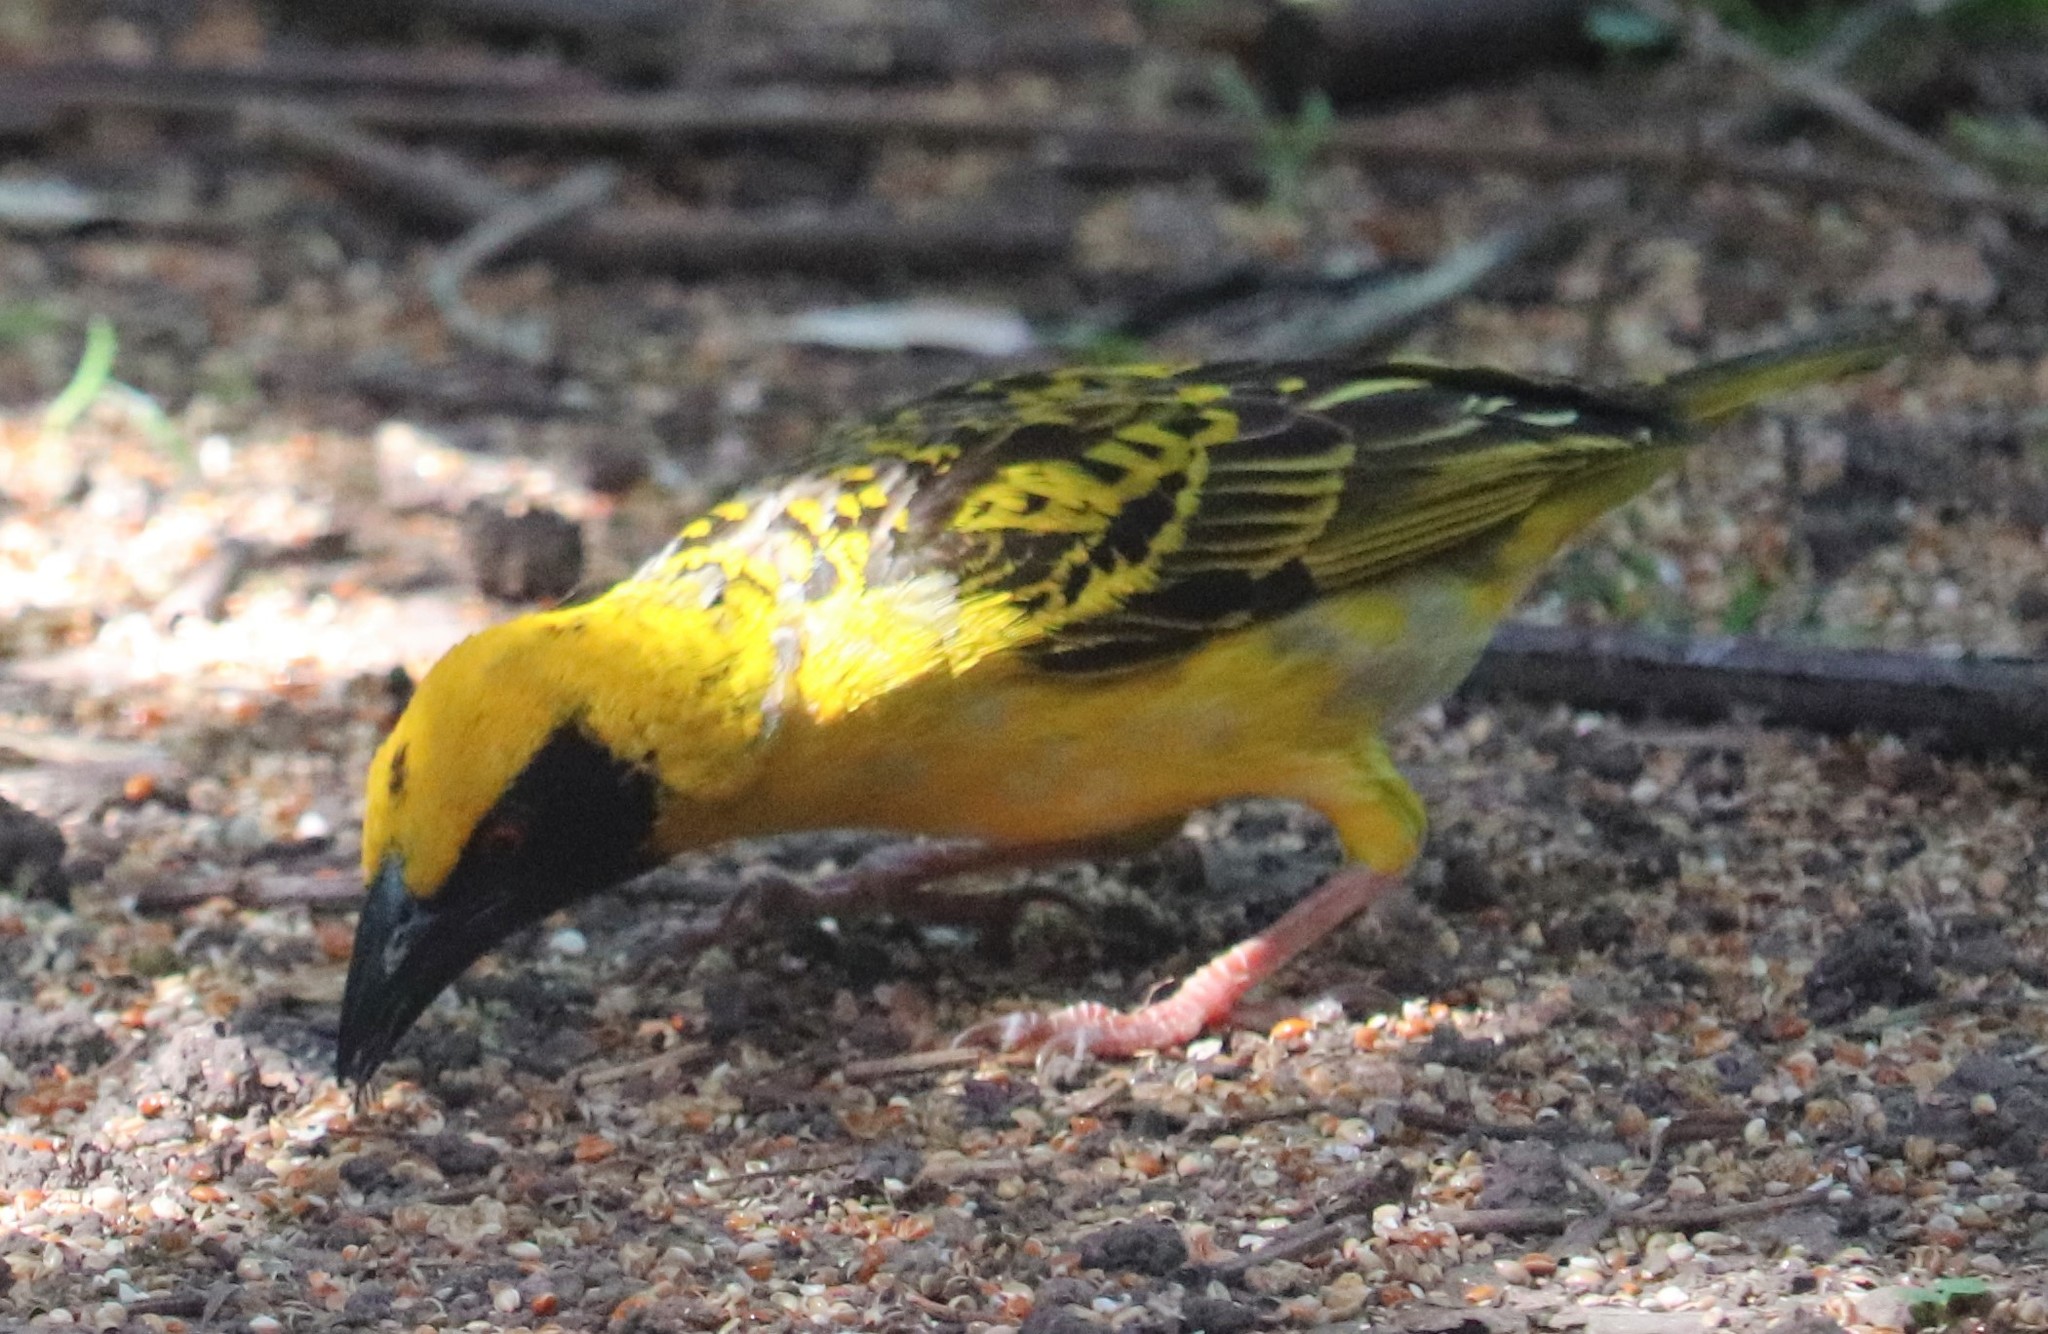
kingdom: Animalia
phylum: Chordata
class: Aves
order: Passeriformes
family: Ploceidae
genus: Ploceus
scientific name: Ploceus cucullatus
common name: Village weaver
